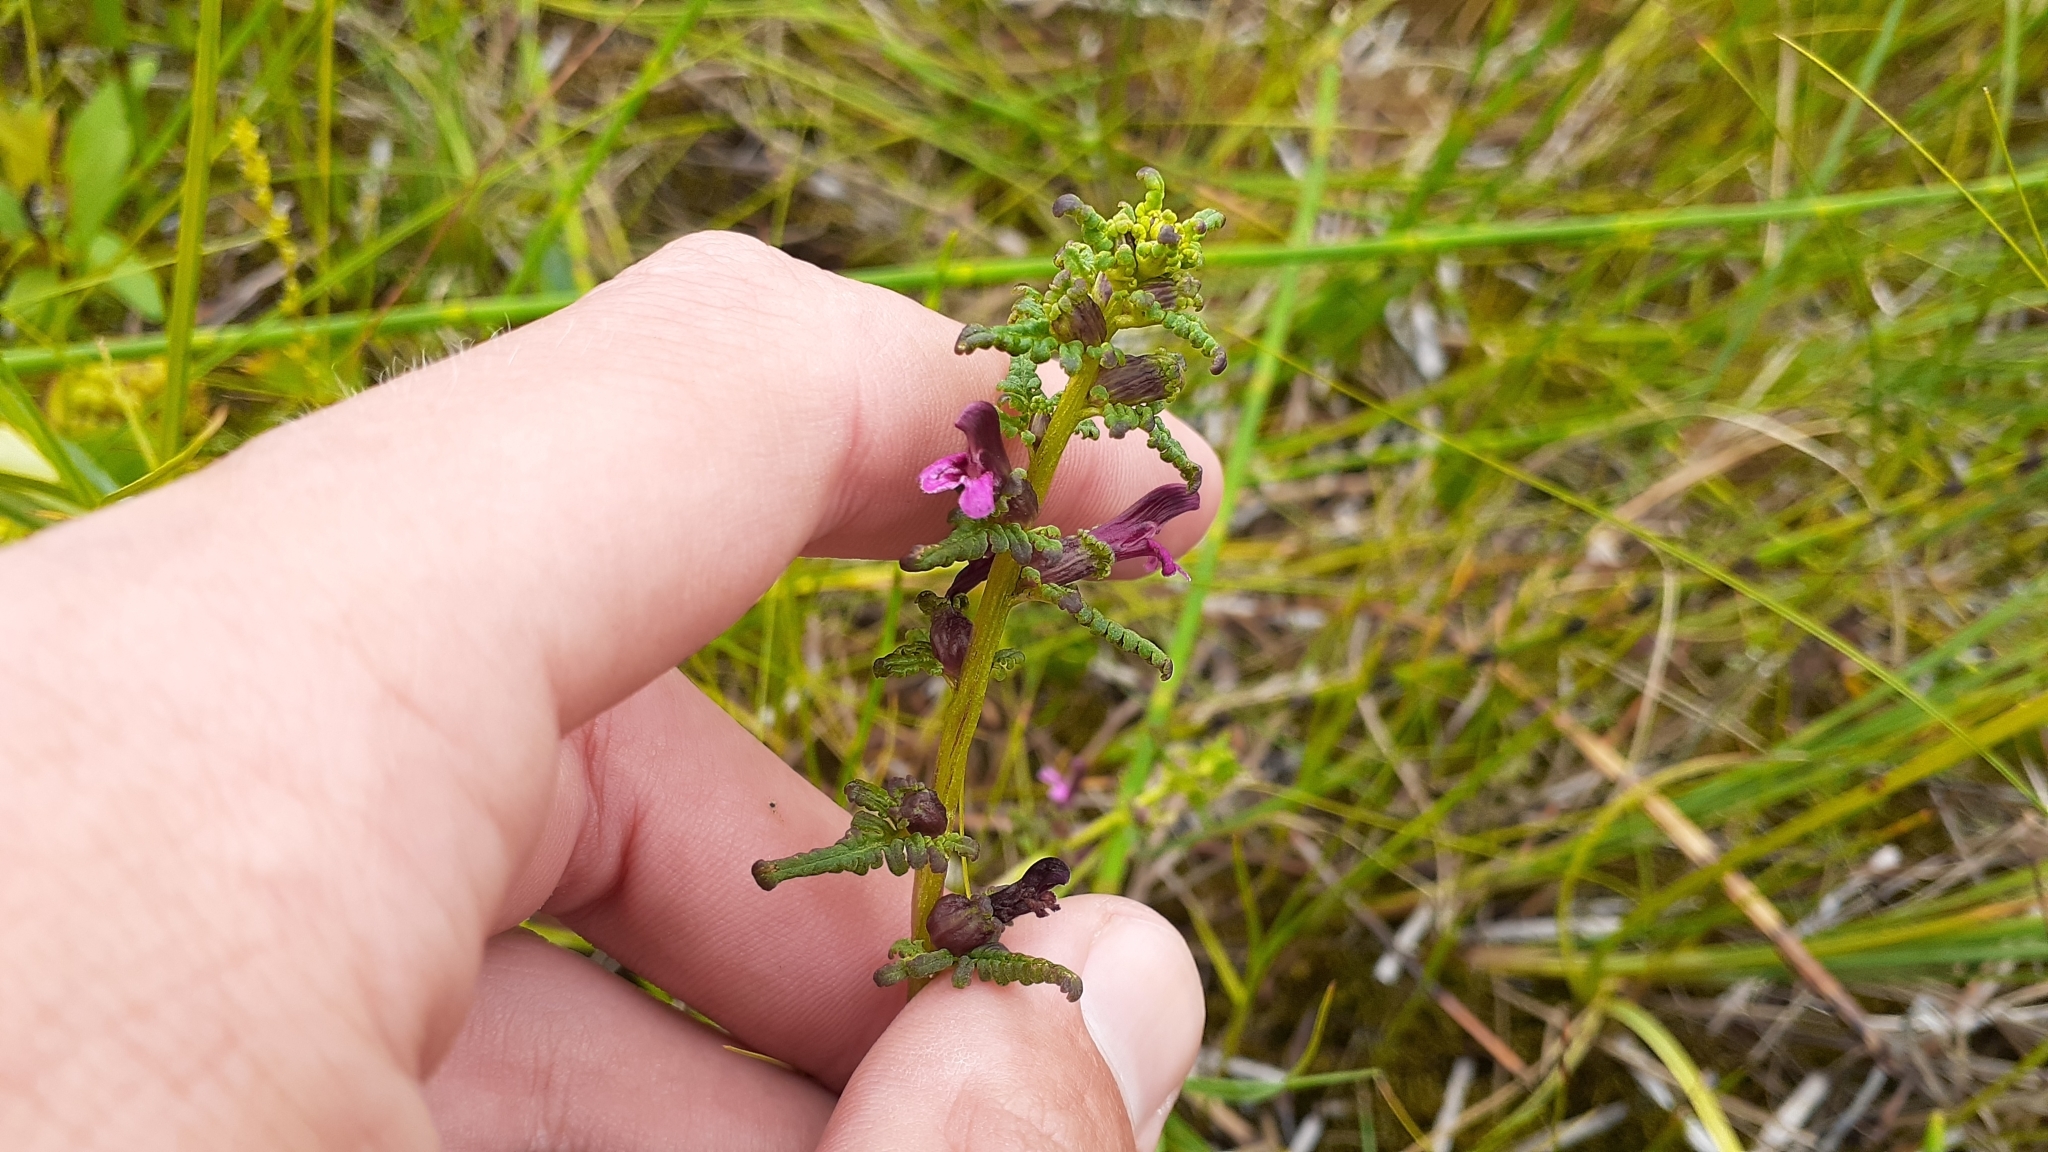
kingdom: Plantae
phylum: Tracheophyta
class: Magnoliopsida
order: Lamiales
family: Orobanchaceae
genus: Pedicularis
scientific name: Pedicularis parviflora
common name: Muskeg lousewort
